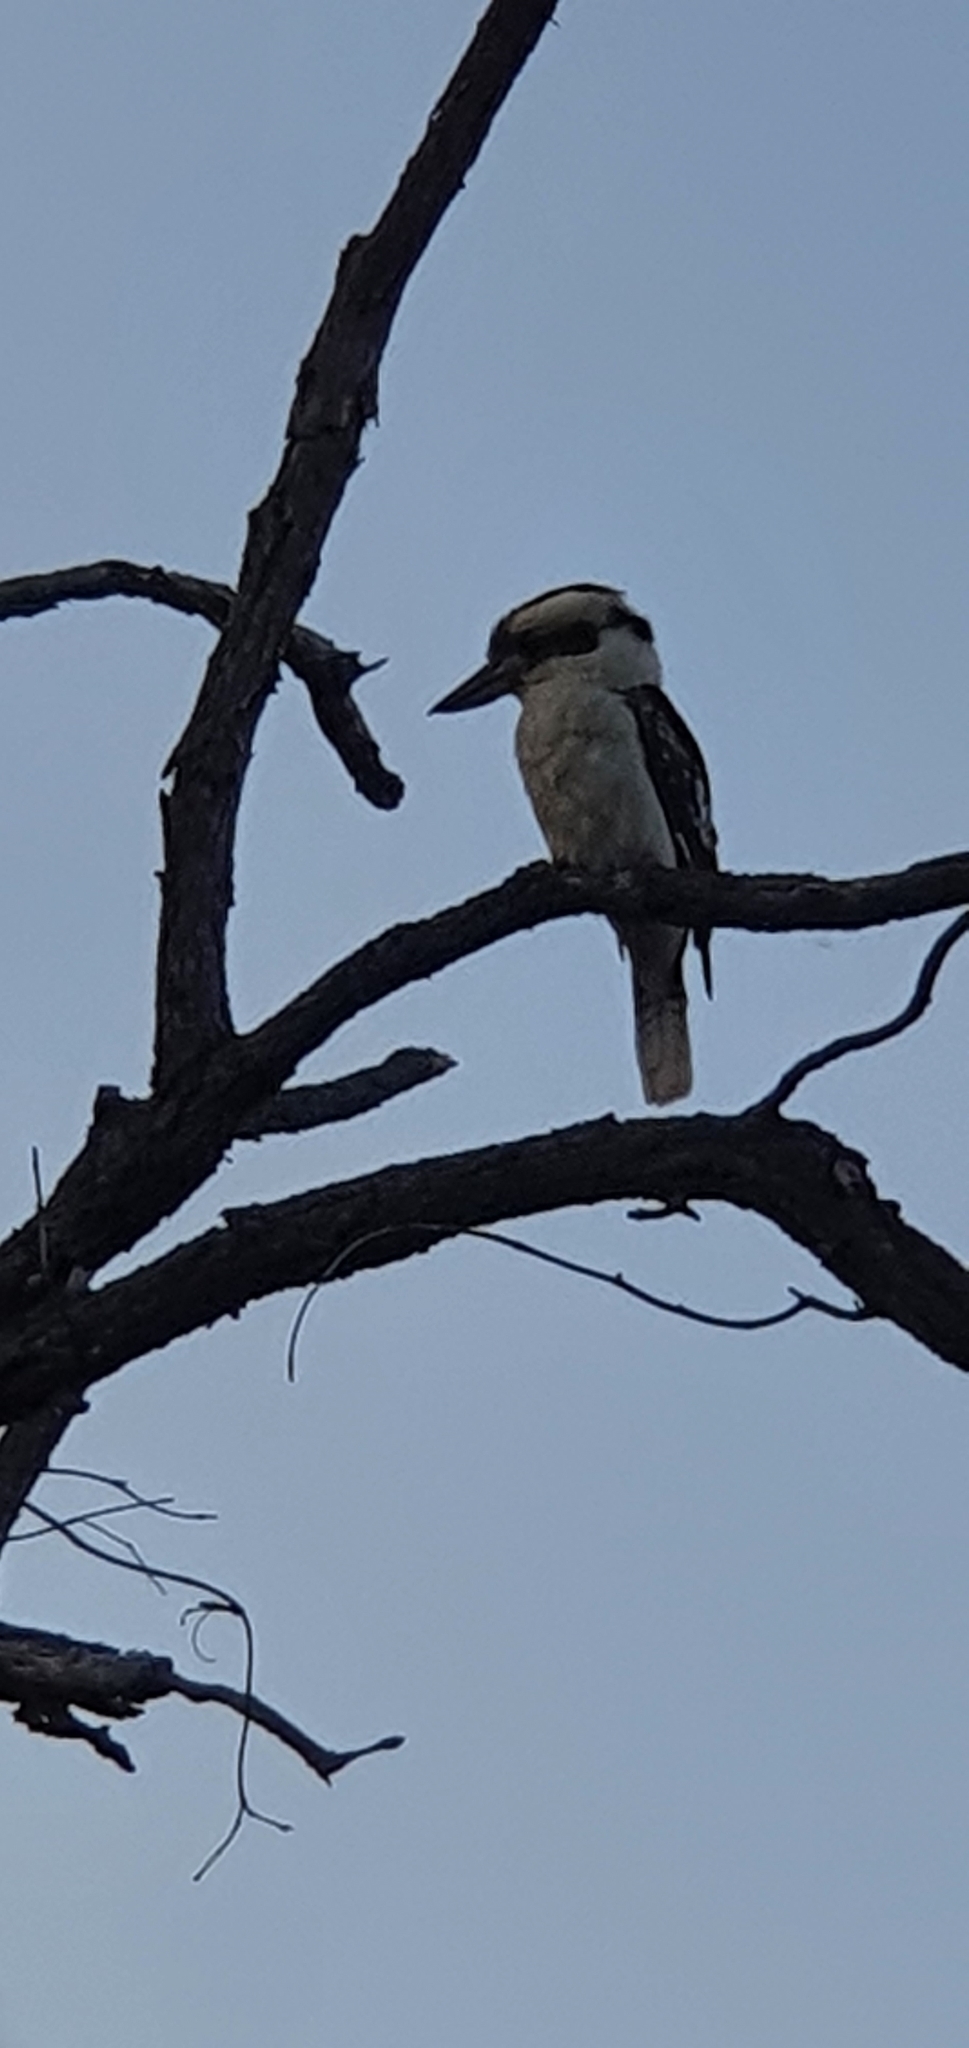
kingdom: Animalia
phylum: Chordata
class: Aves
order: Coraciiformes
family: Alcedinidae
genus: Dacelo
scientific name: Dacelo novaeguineae
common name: Laughing kookaburra
